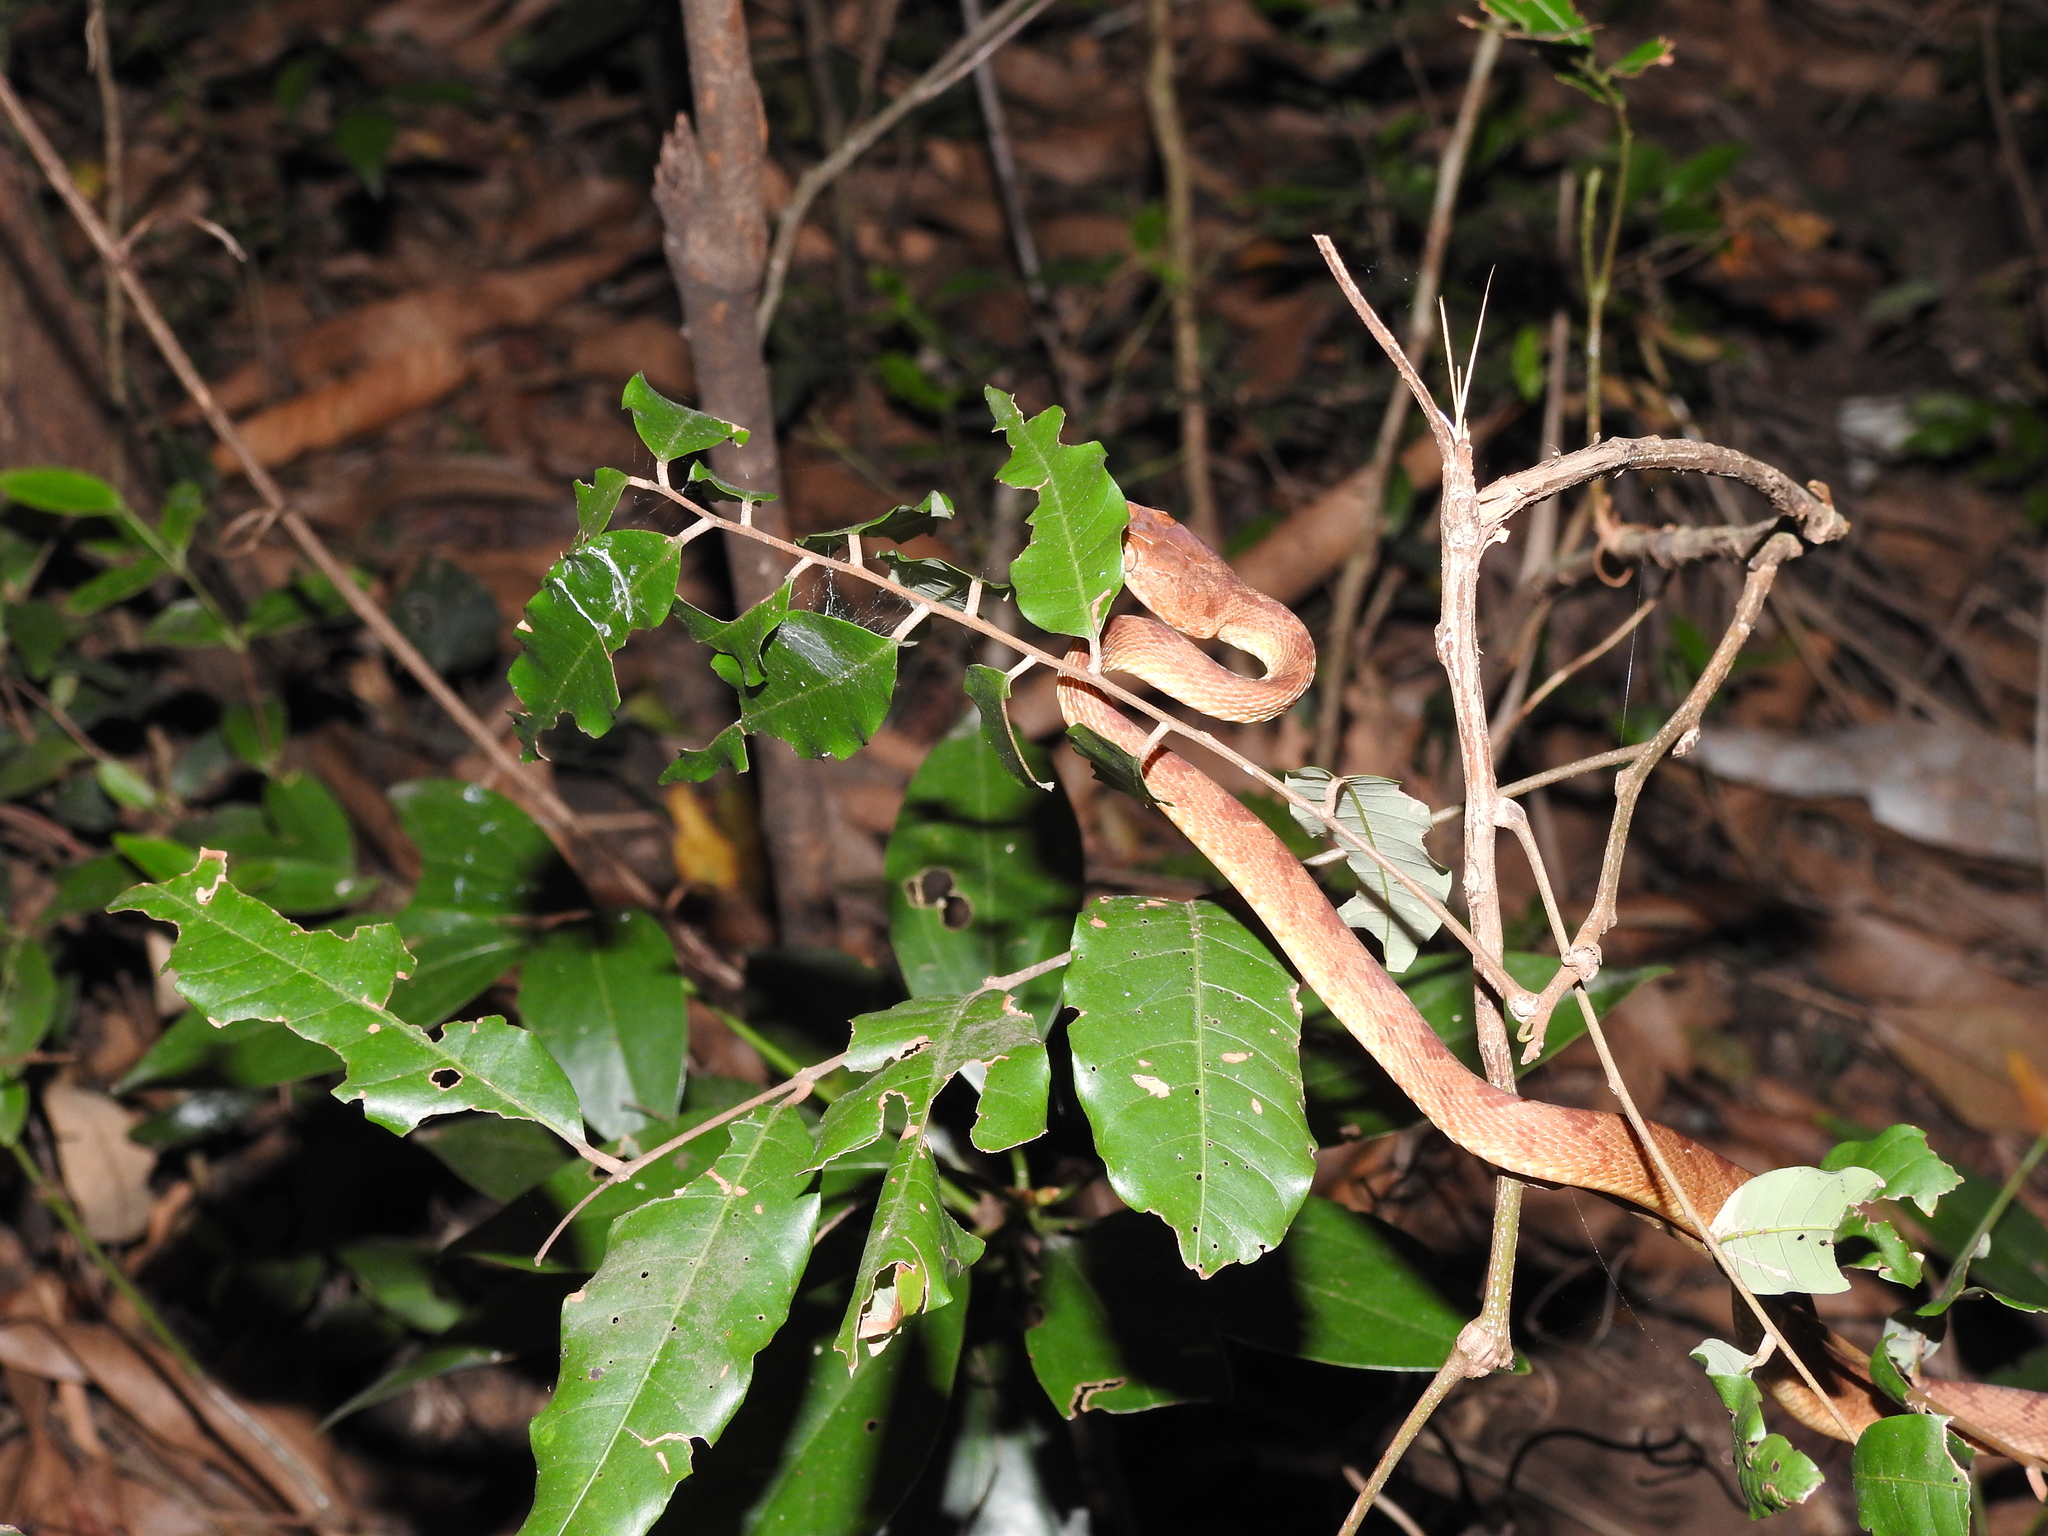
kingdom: Animalia
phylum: Chordata
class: Squamata
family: Colubridae
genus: Boiga
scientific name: Boiga dightoni
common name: Pirmad cat snake
